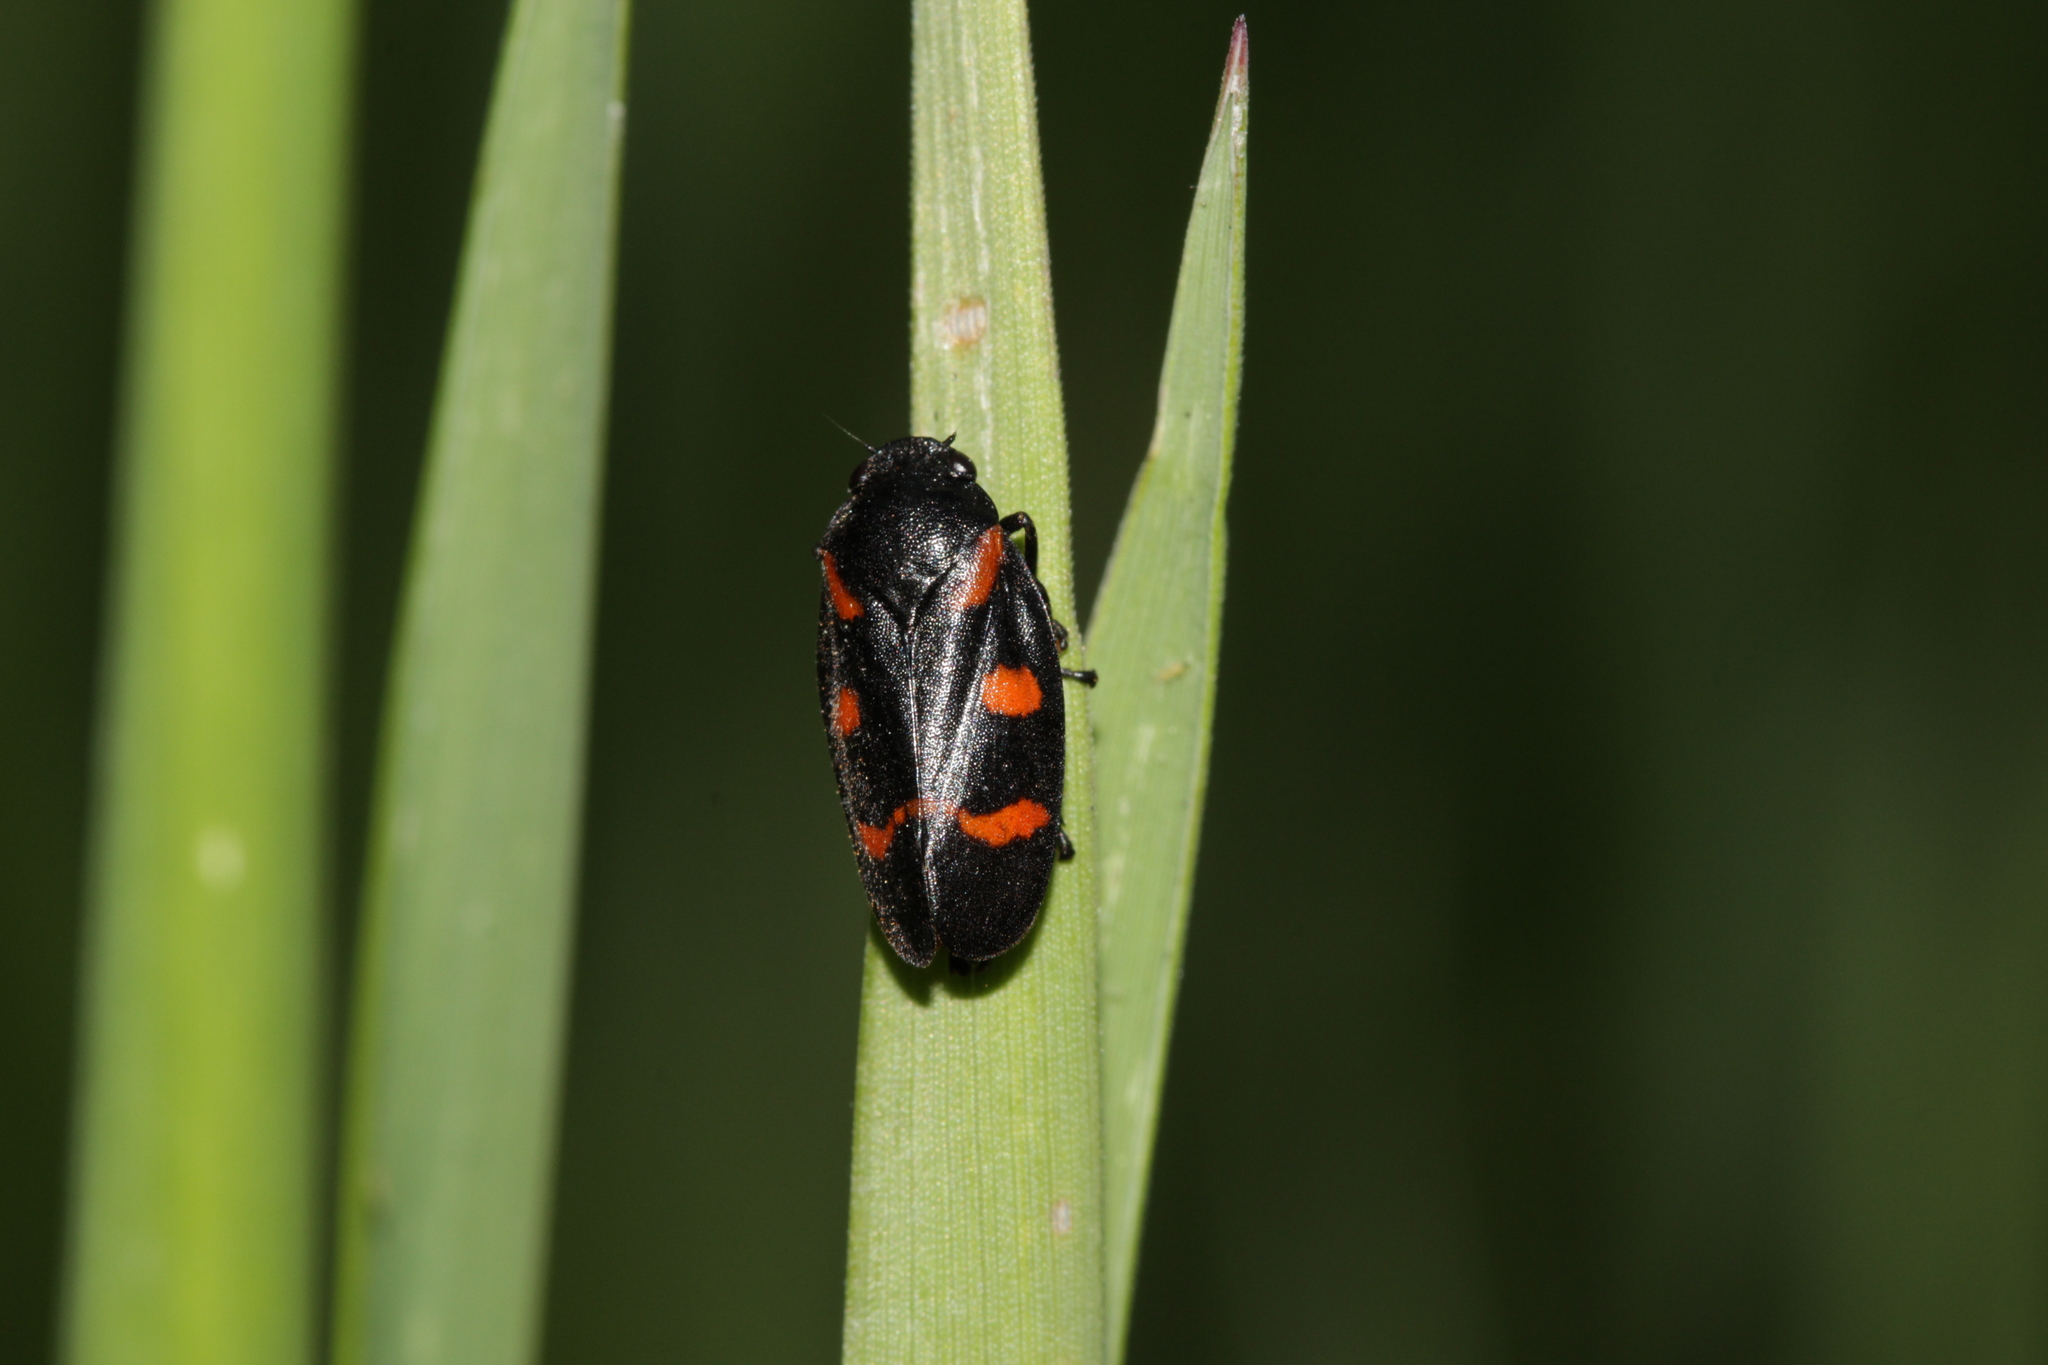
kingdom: Animalia
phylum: Arthropoda
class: Insecta
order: Hemiptera
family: Cercopidae
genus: Cercopis
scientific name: Cercopis sanguinolenta
